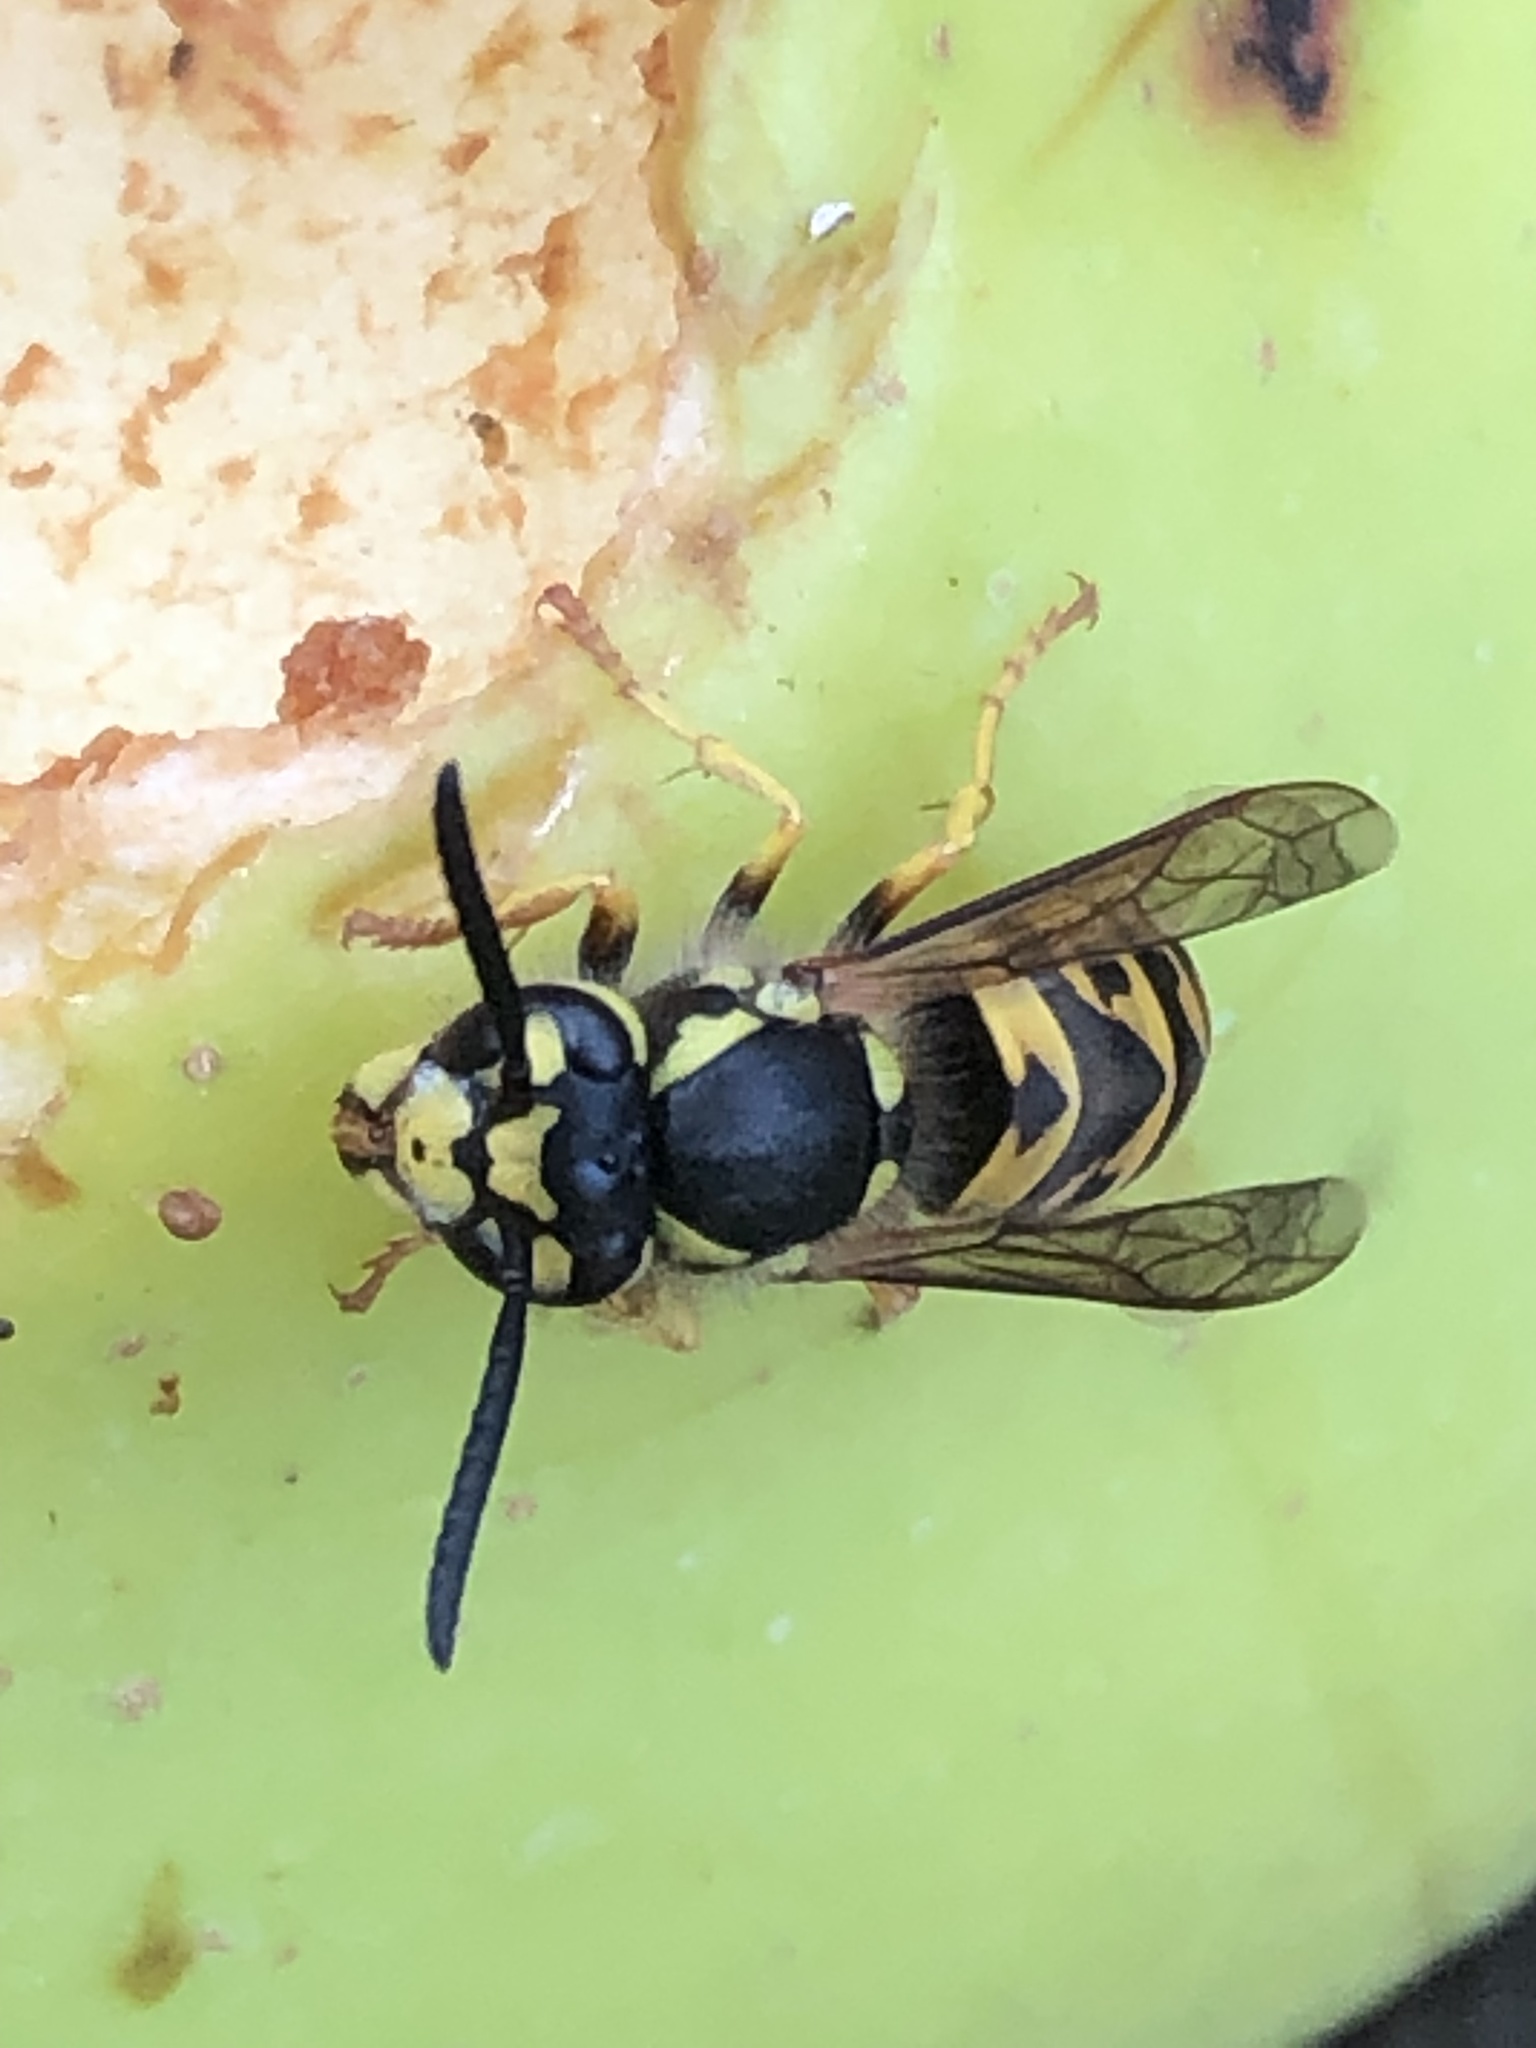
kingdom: Animalia
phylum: Arthropoda
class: Insecta
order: Hymenoptera
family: Vespidae
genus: Vespula
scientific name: Vespula germanica
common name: German wasp
